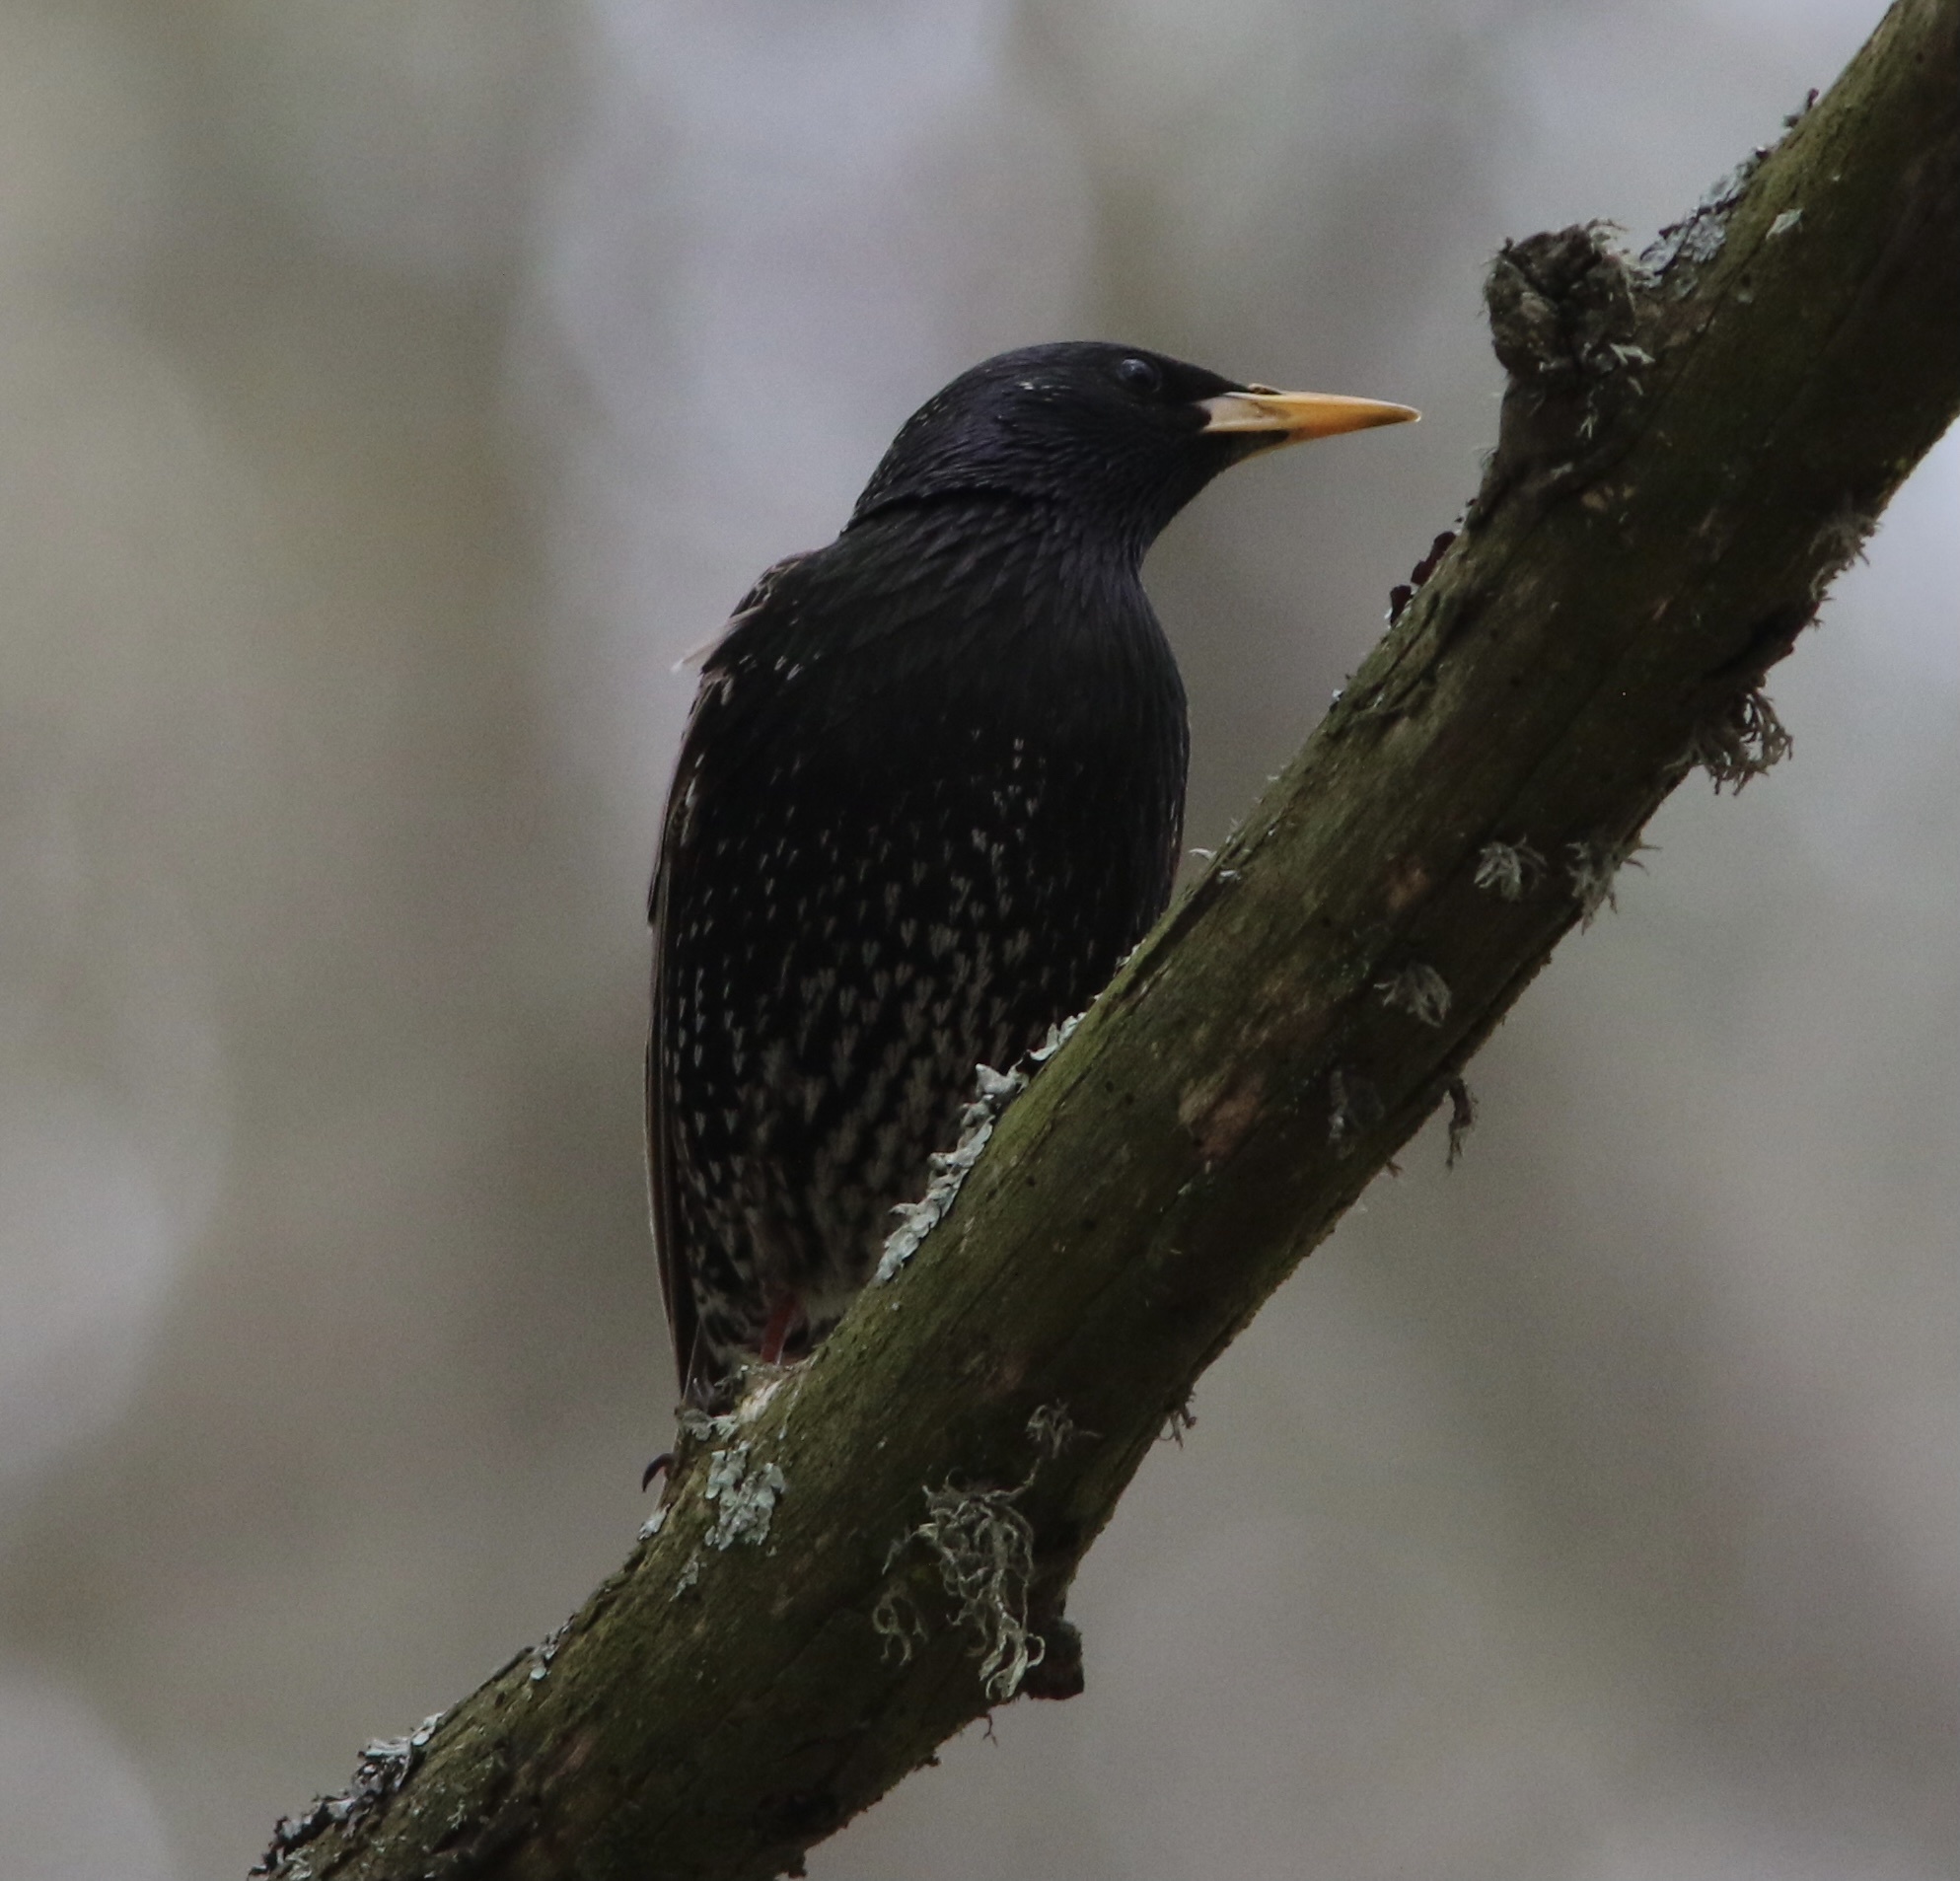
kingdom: Animalia
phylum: Chordata
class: Aves
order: Passeriformes
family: Sturnidae
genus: Sturnus
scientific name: Sturnus vulgaris
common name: Common starling
